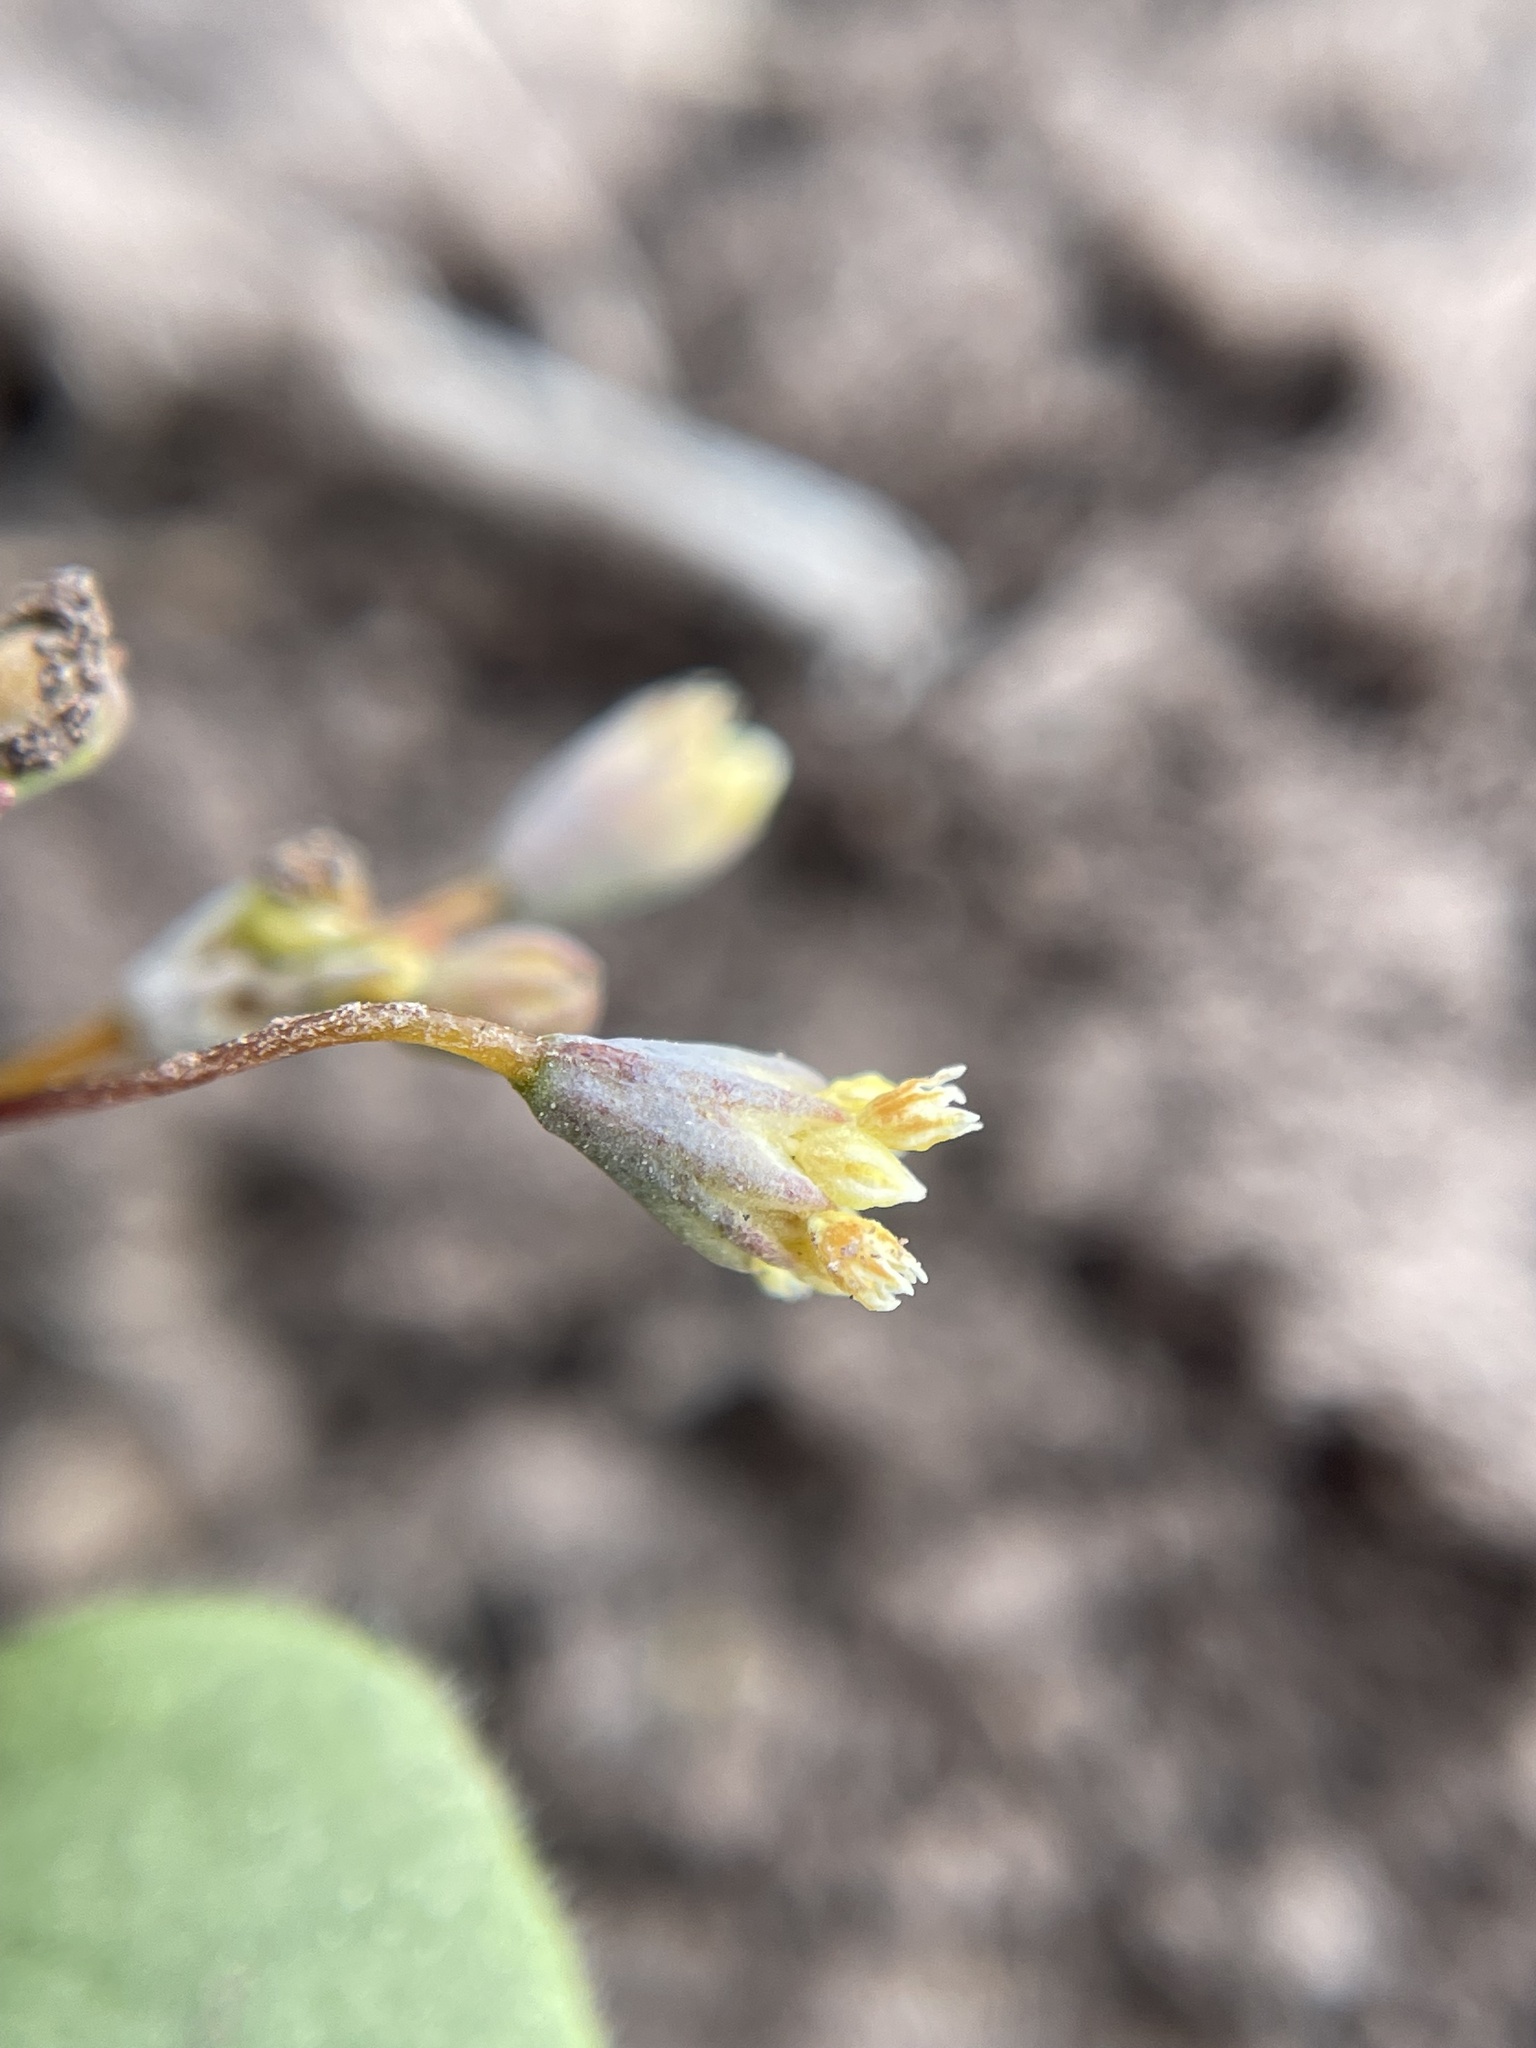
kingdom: Plantae
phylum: Tracheophyta
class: Magnoliopsida
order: Caryophyllales
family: Polygonaceae
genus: Eriogonum
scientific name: Eriogonum rubricaule
